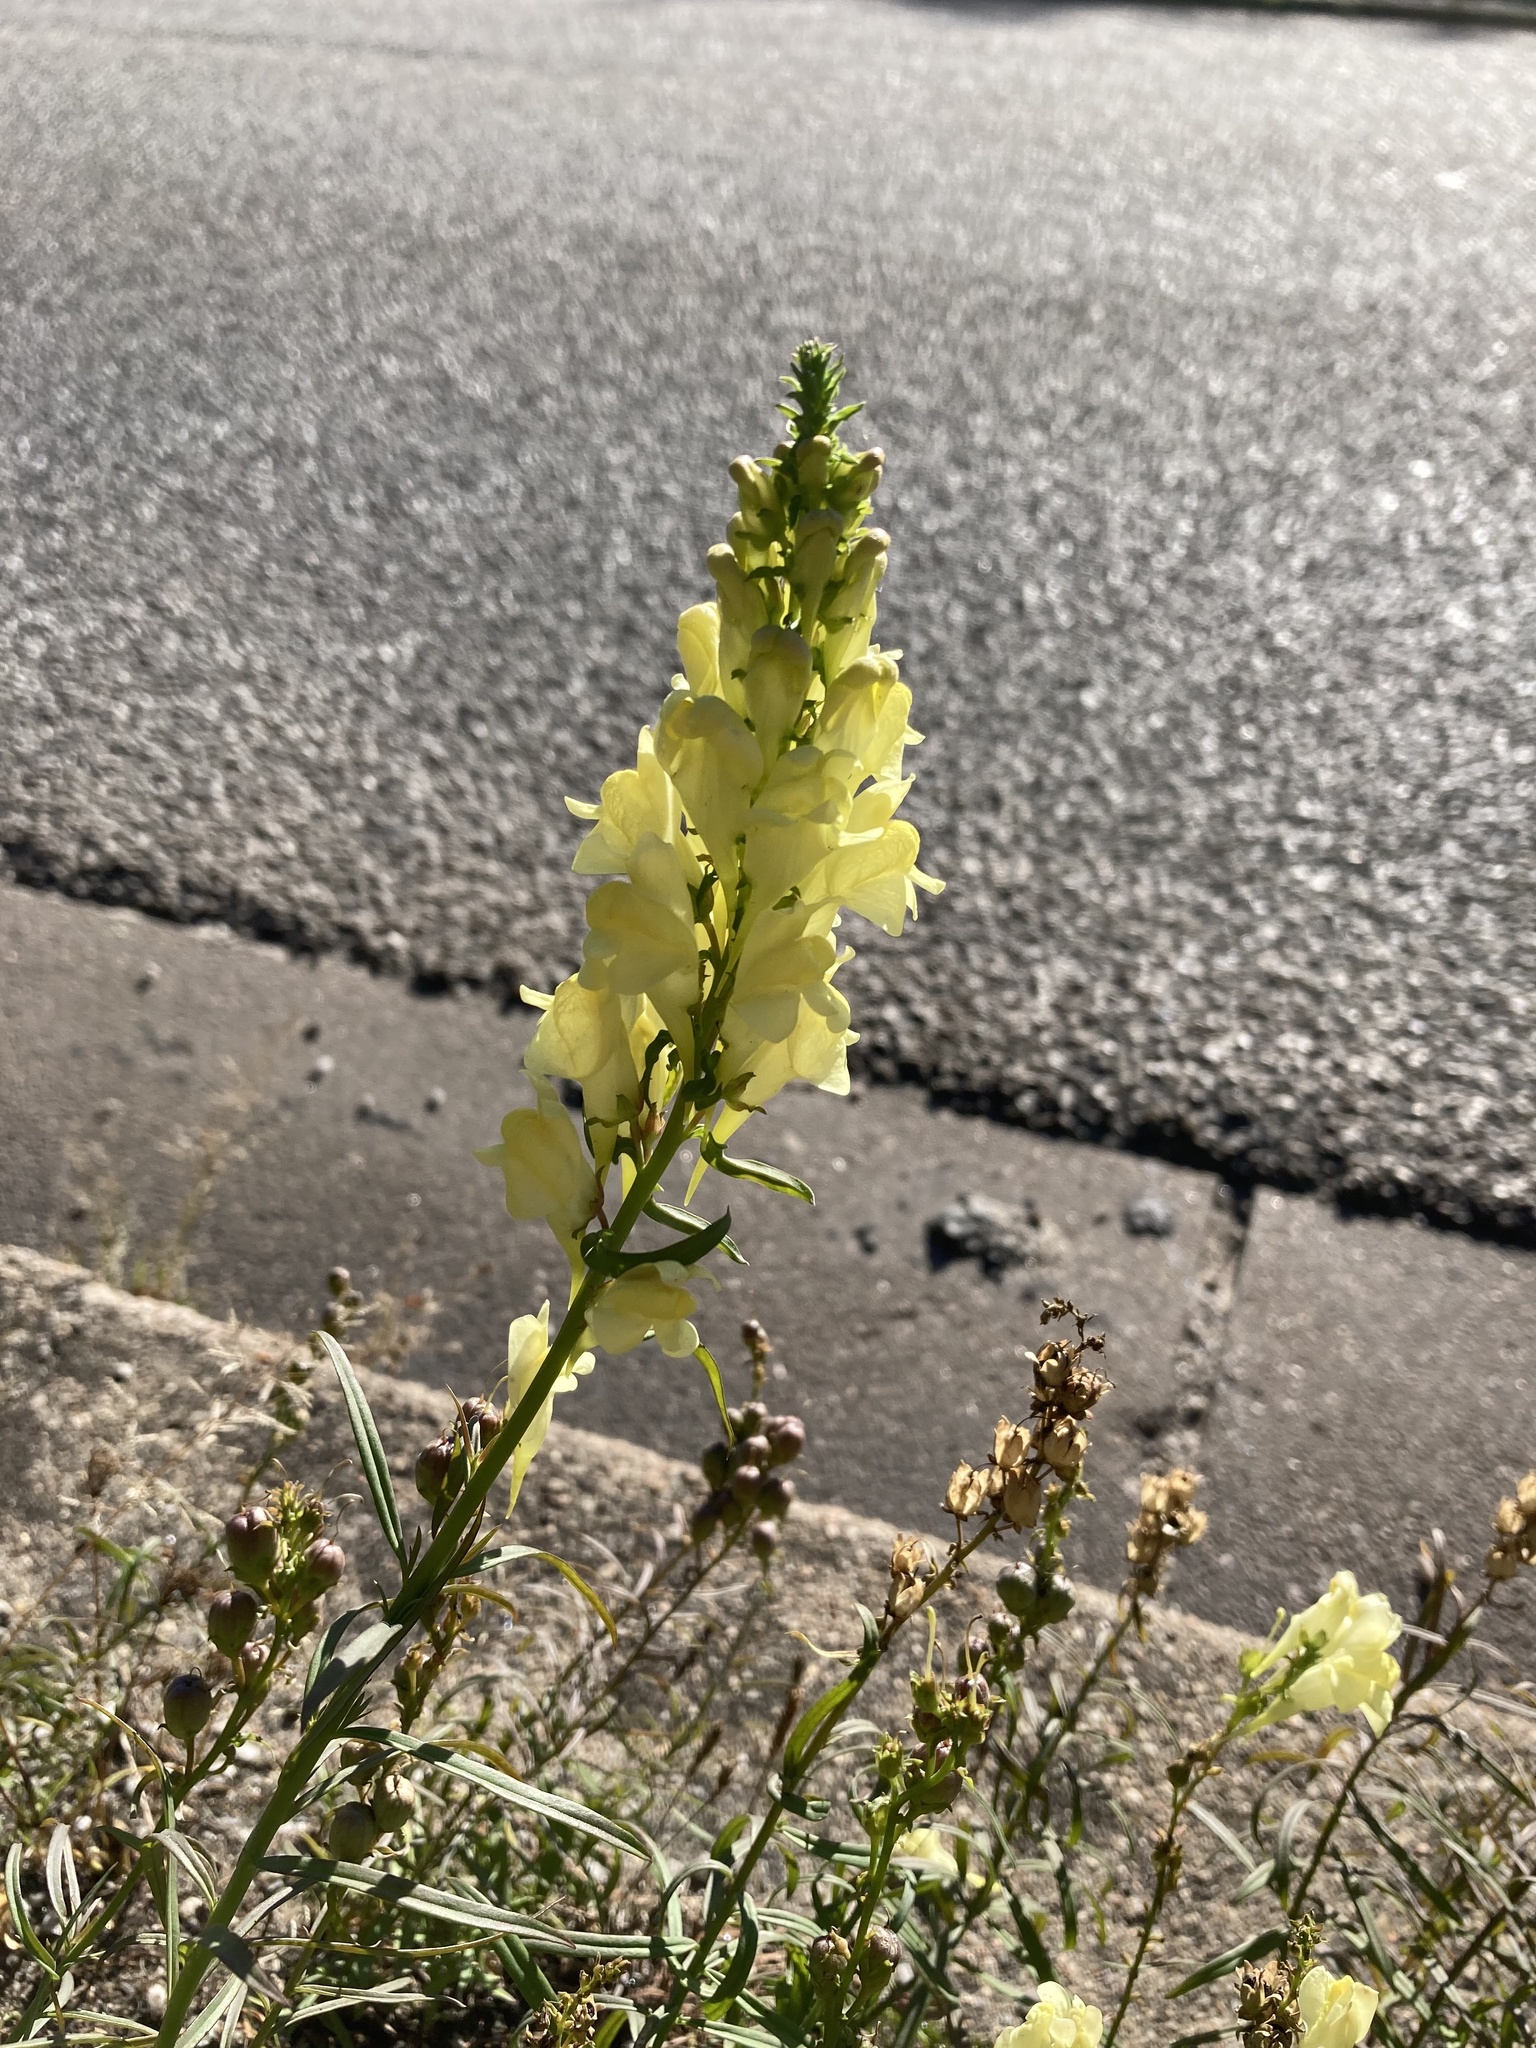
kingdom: Plantae
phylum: Tracheophyta
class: Magnoliopsida
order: Lamiales
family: Plantaginaceae
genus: Linaria
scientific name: Linaria vulgaris
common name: Butter and eggs
